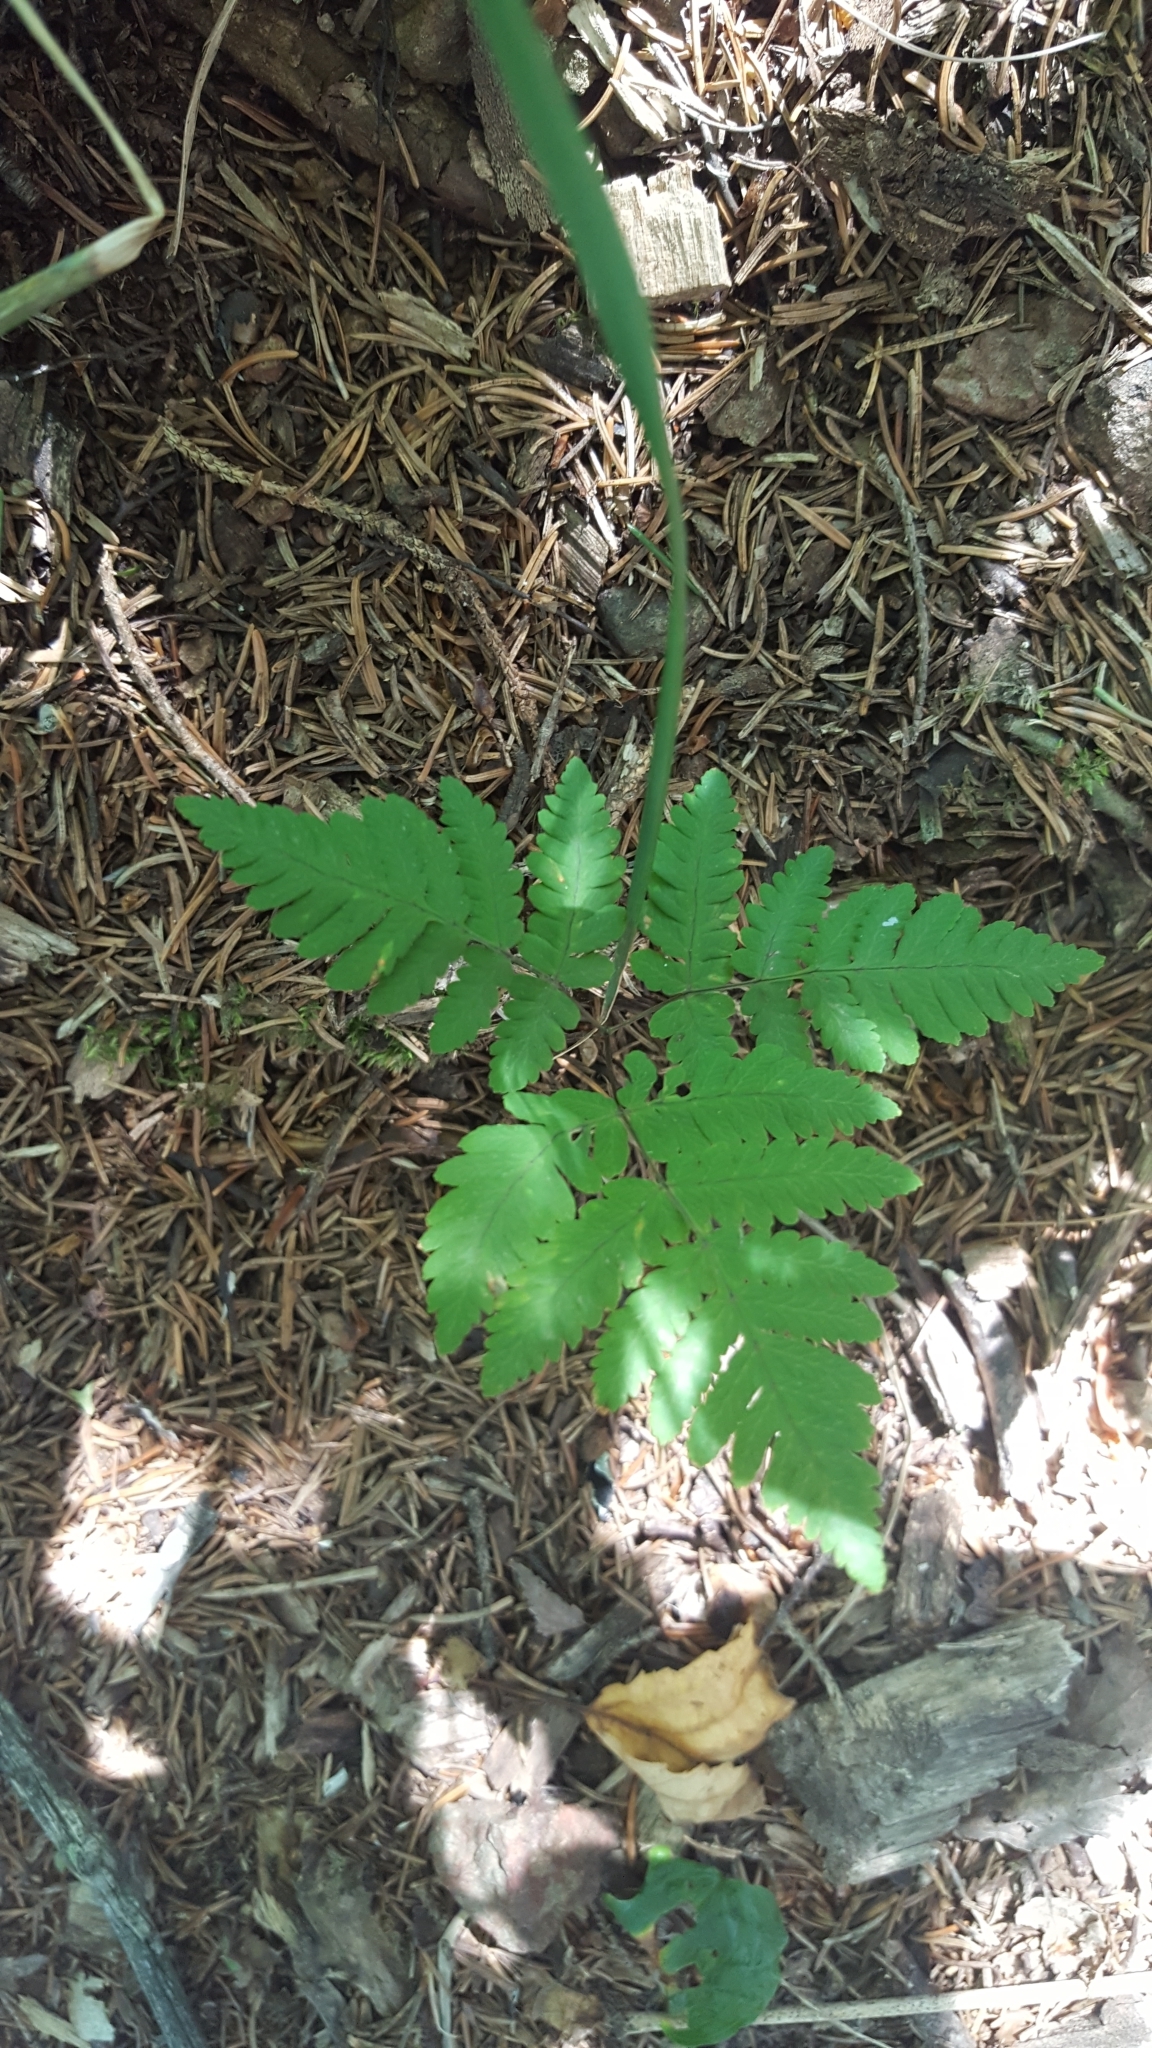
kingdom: Plantae
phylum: Tracheophyta
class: Polypodiopsida
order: Polypodiales
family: Cystopteridaceae
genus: Gymnocarpium
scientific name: Gymnocarpium dryopteris
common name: Oak fern
